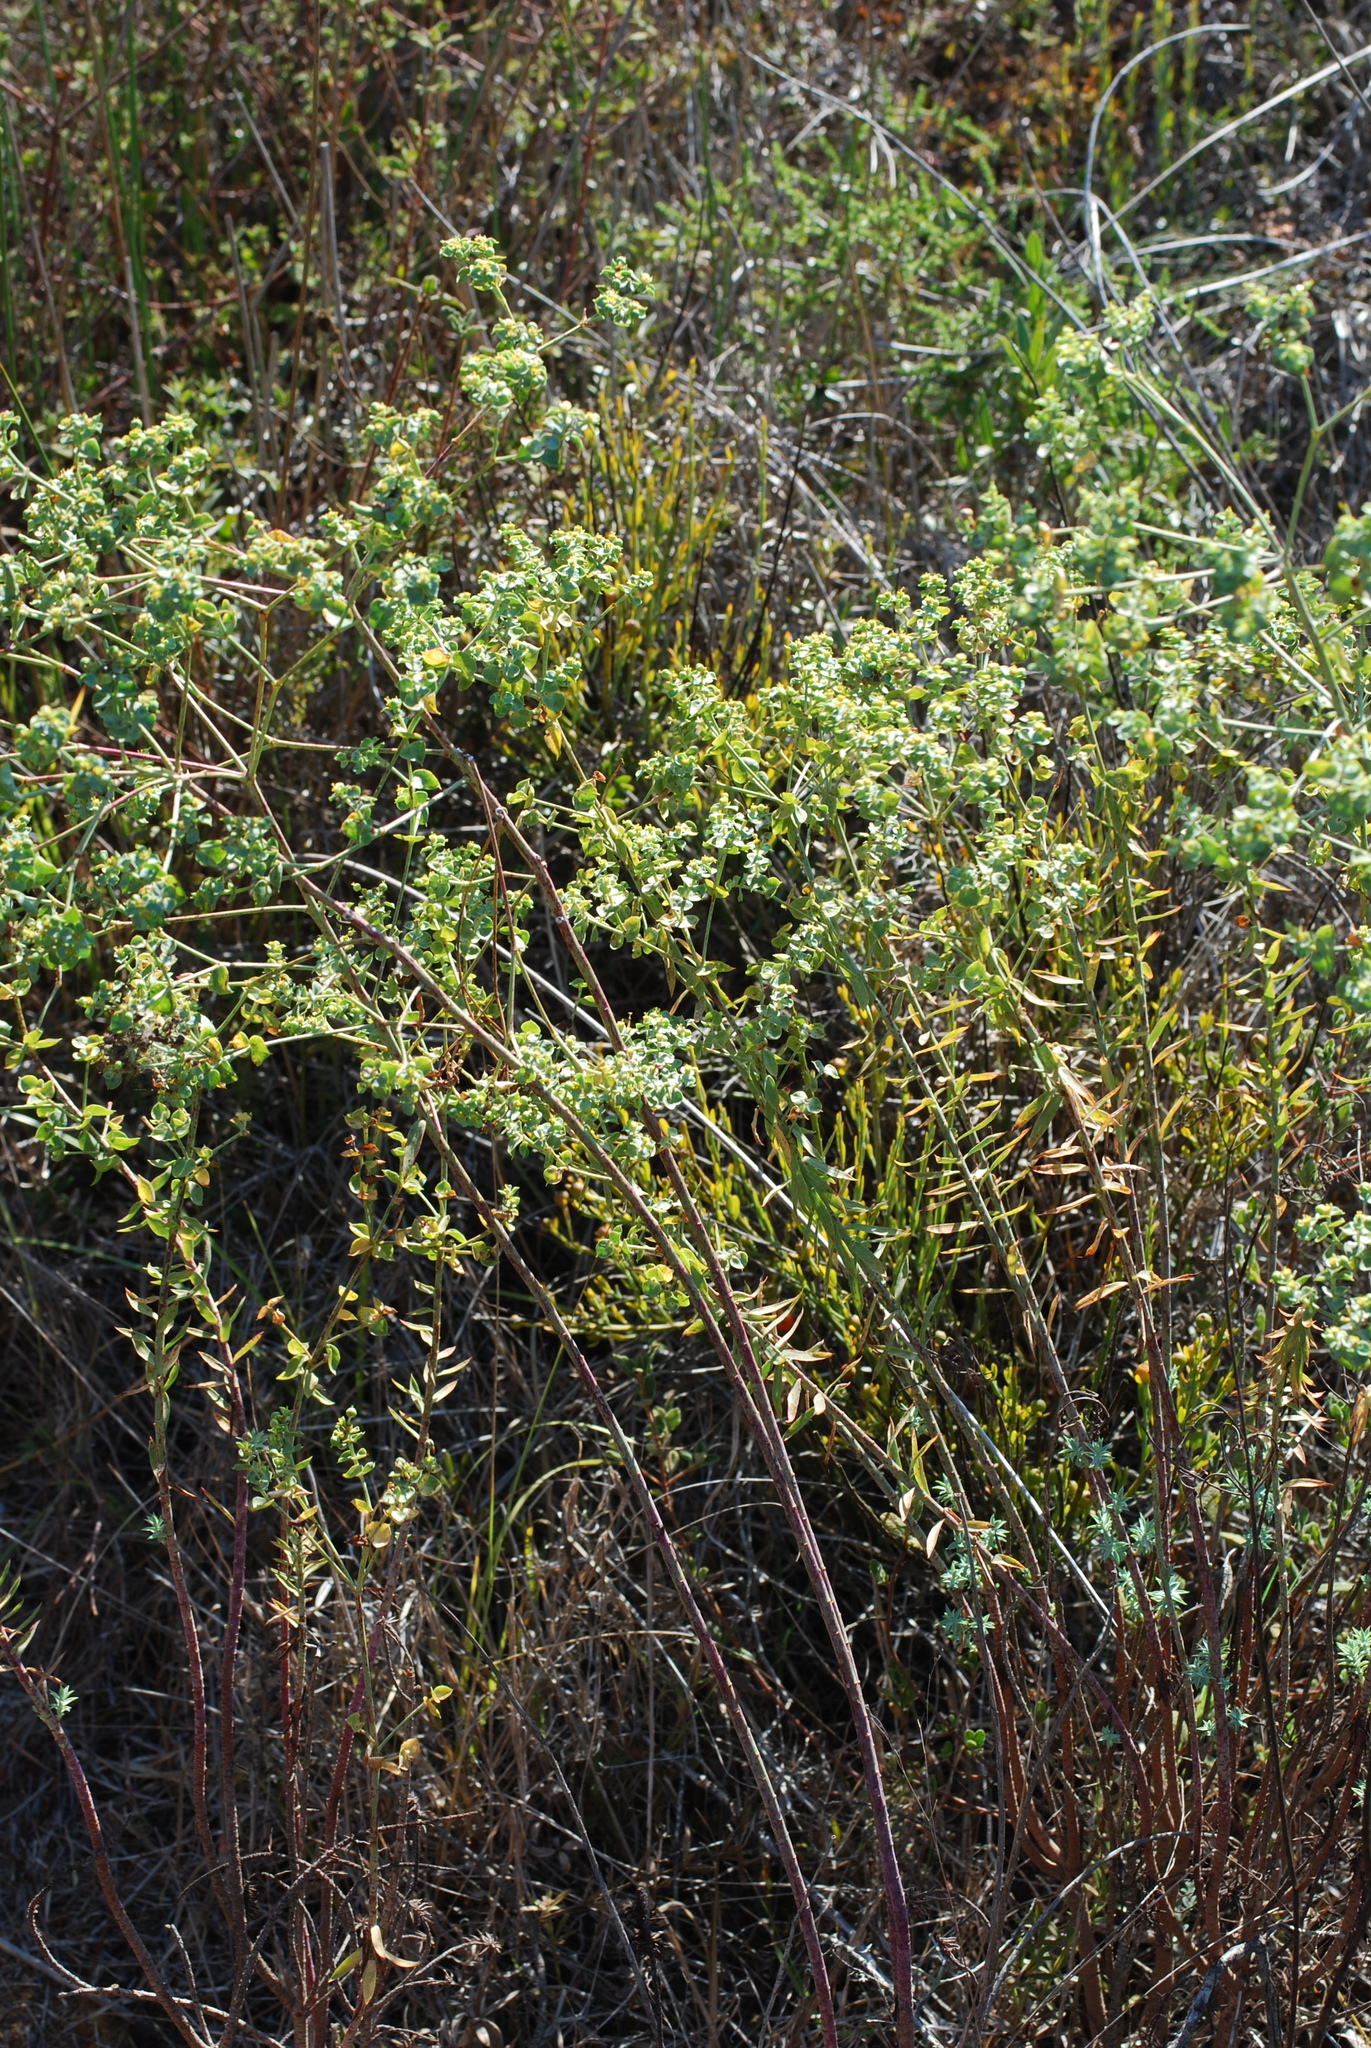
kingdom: Plantae
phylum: Tracheophyta
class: Magnoliopsida
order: Malpighiales
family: Euphorbiaceae
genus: Euphorbia
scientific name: Euphorbia cupanii
